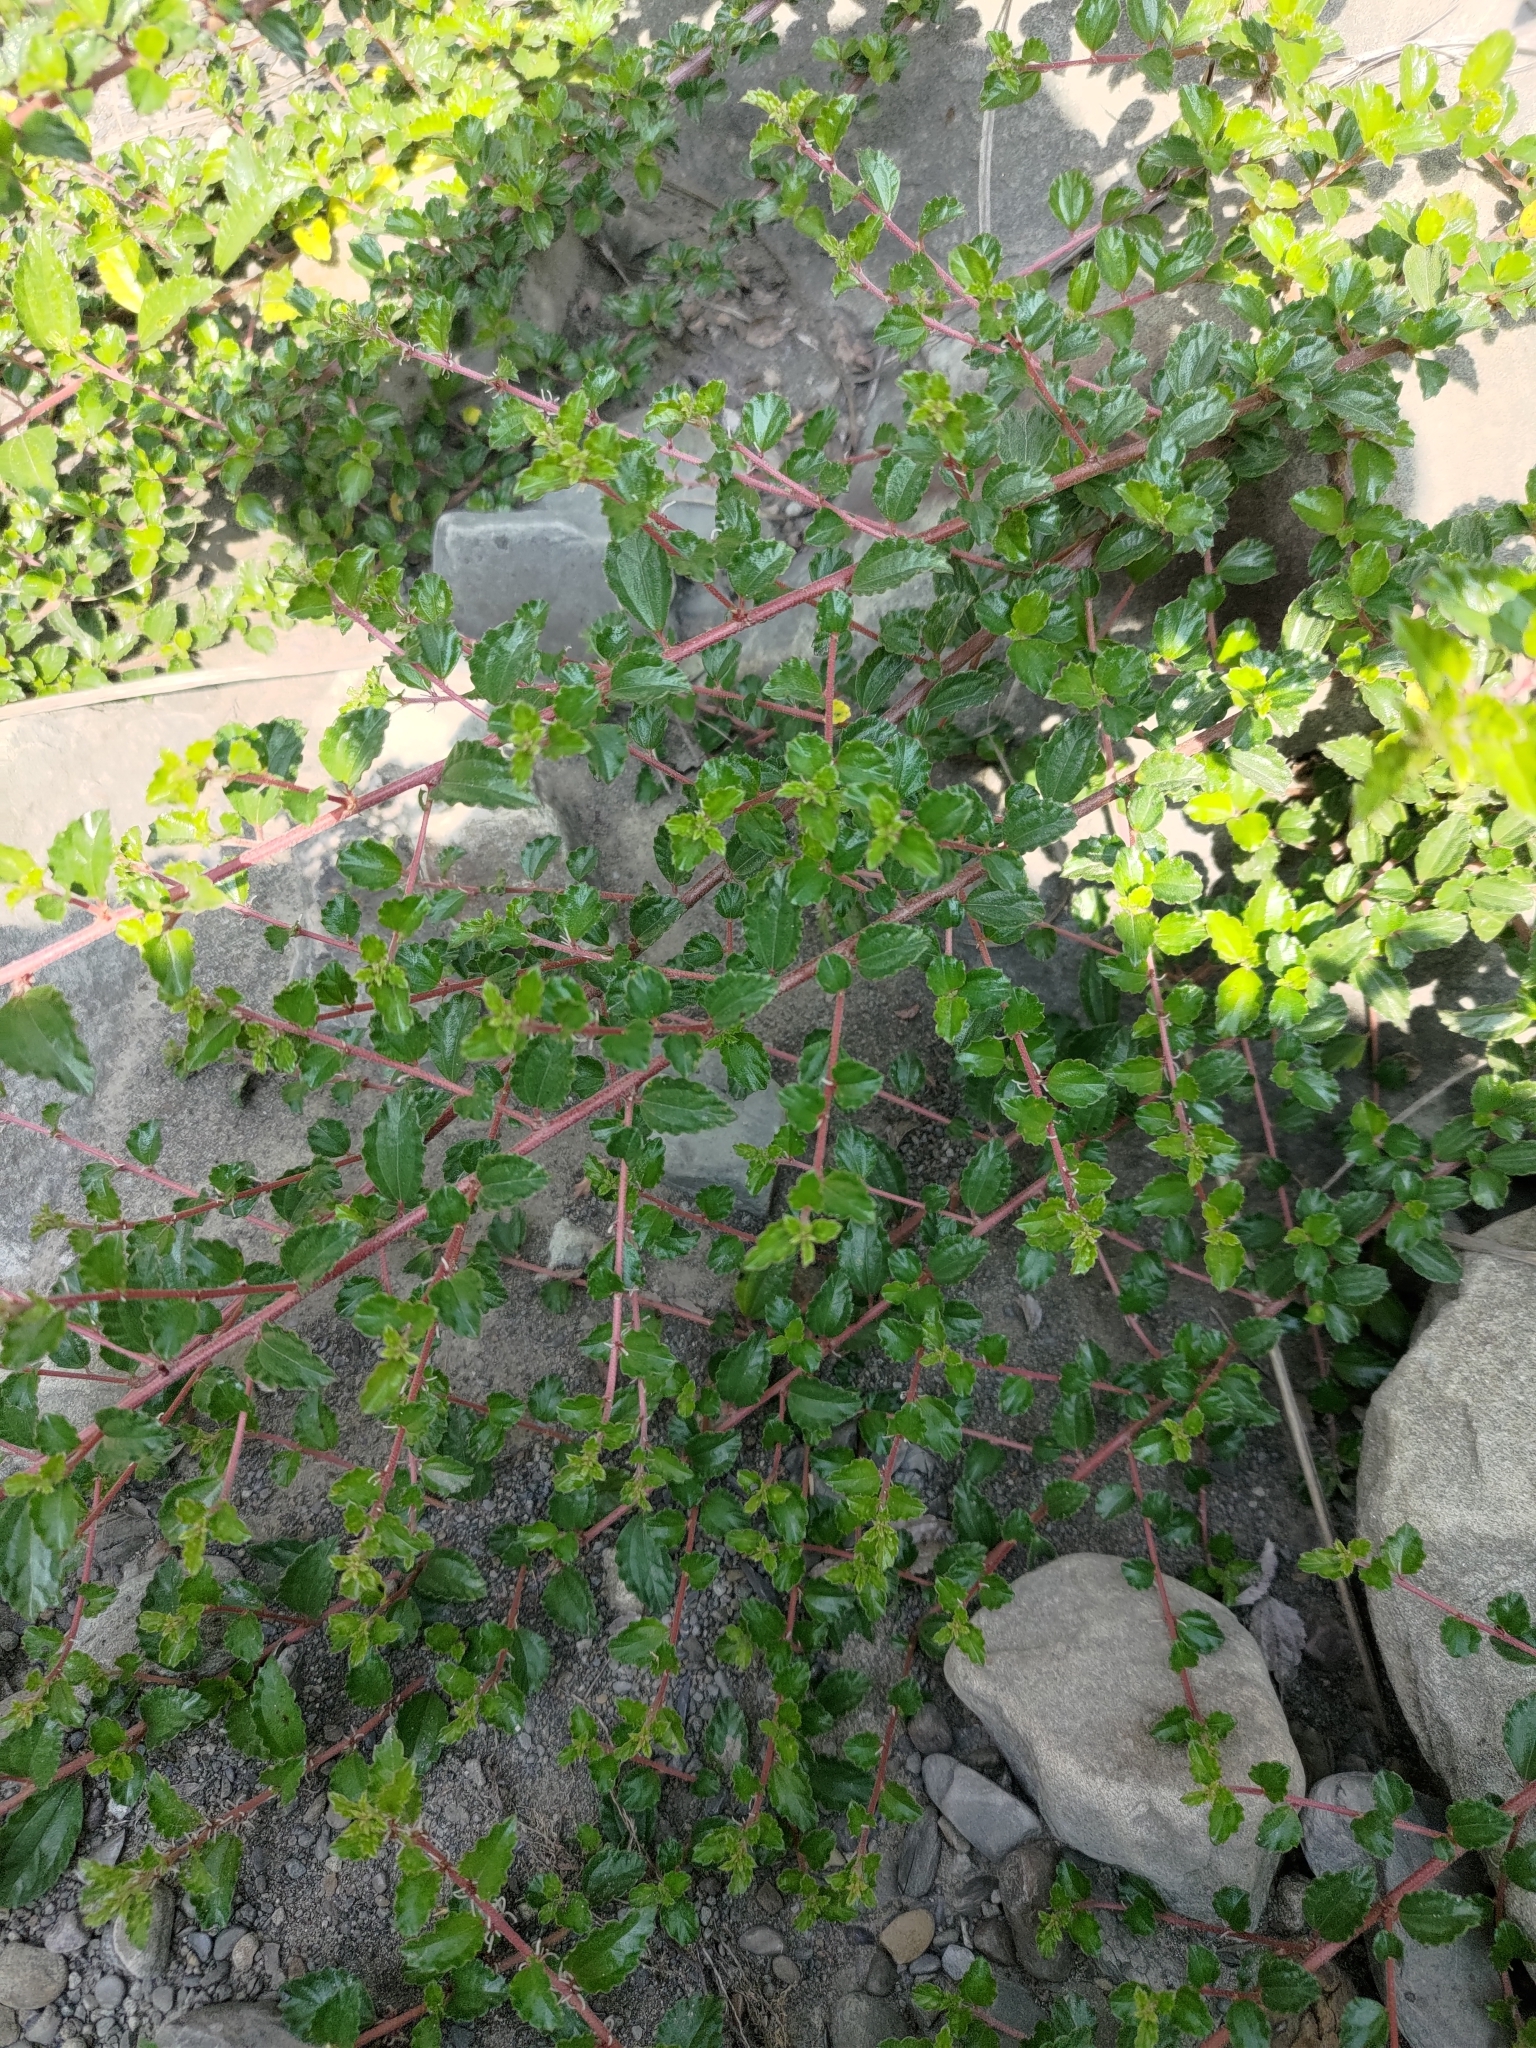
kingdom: Plantae
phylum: Tracheophyta
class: Magnoliopsida
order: Rosales
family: Urticaceae
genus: Pouzolzia
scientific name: Pouzolzia sanguinea
